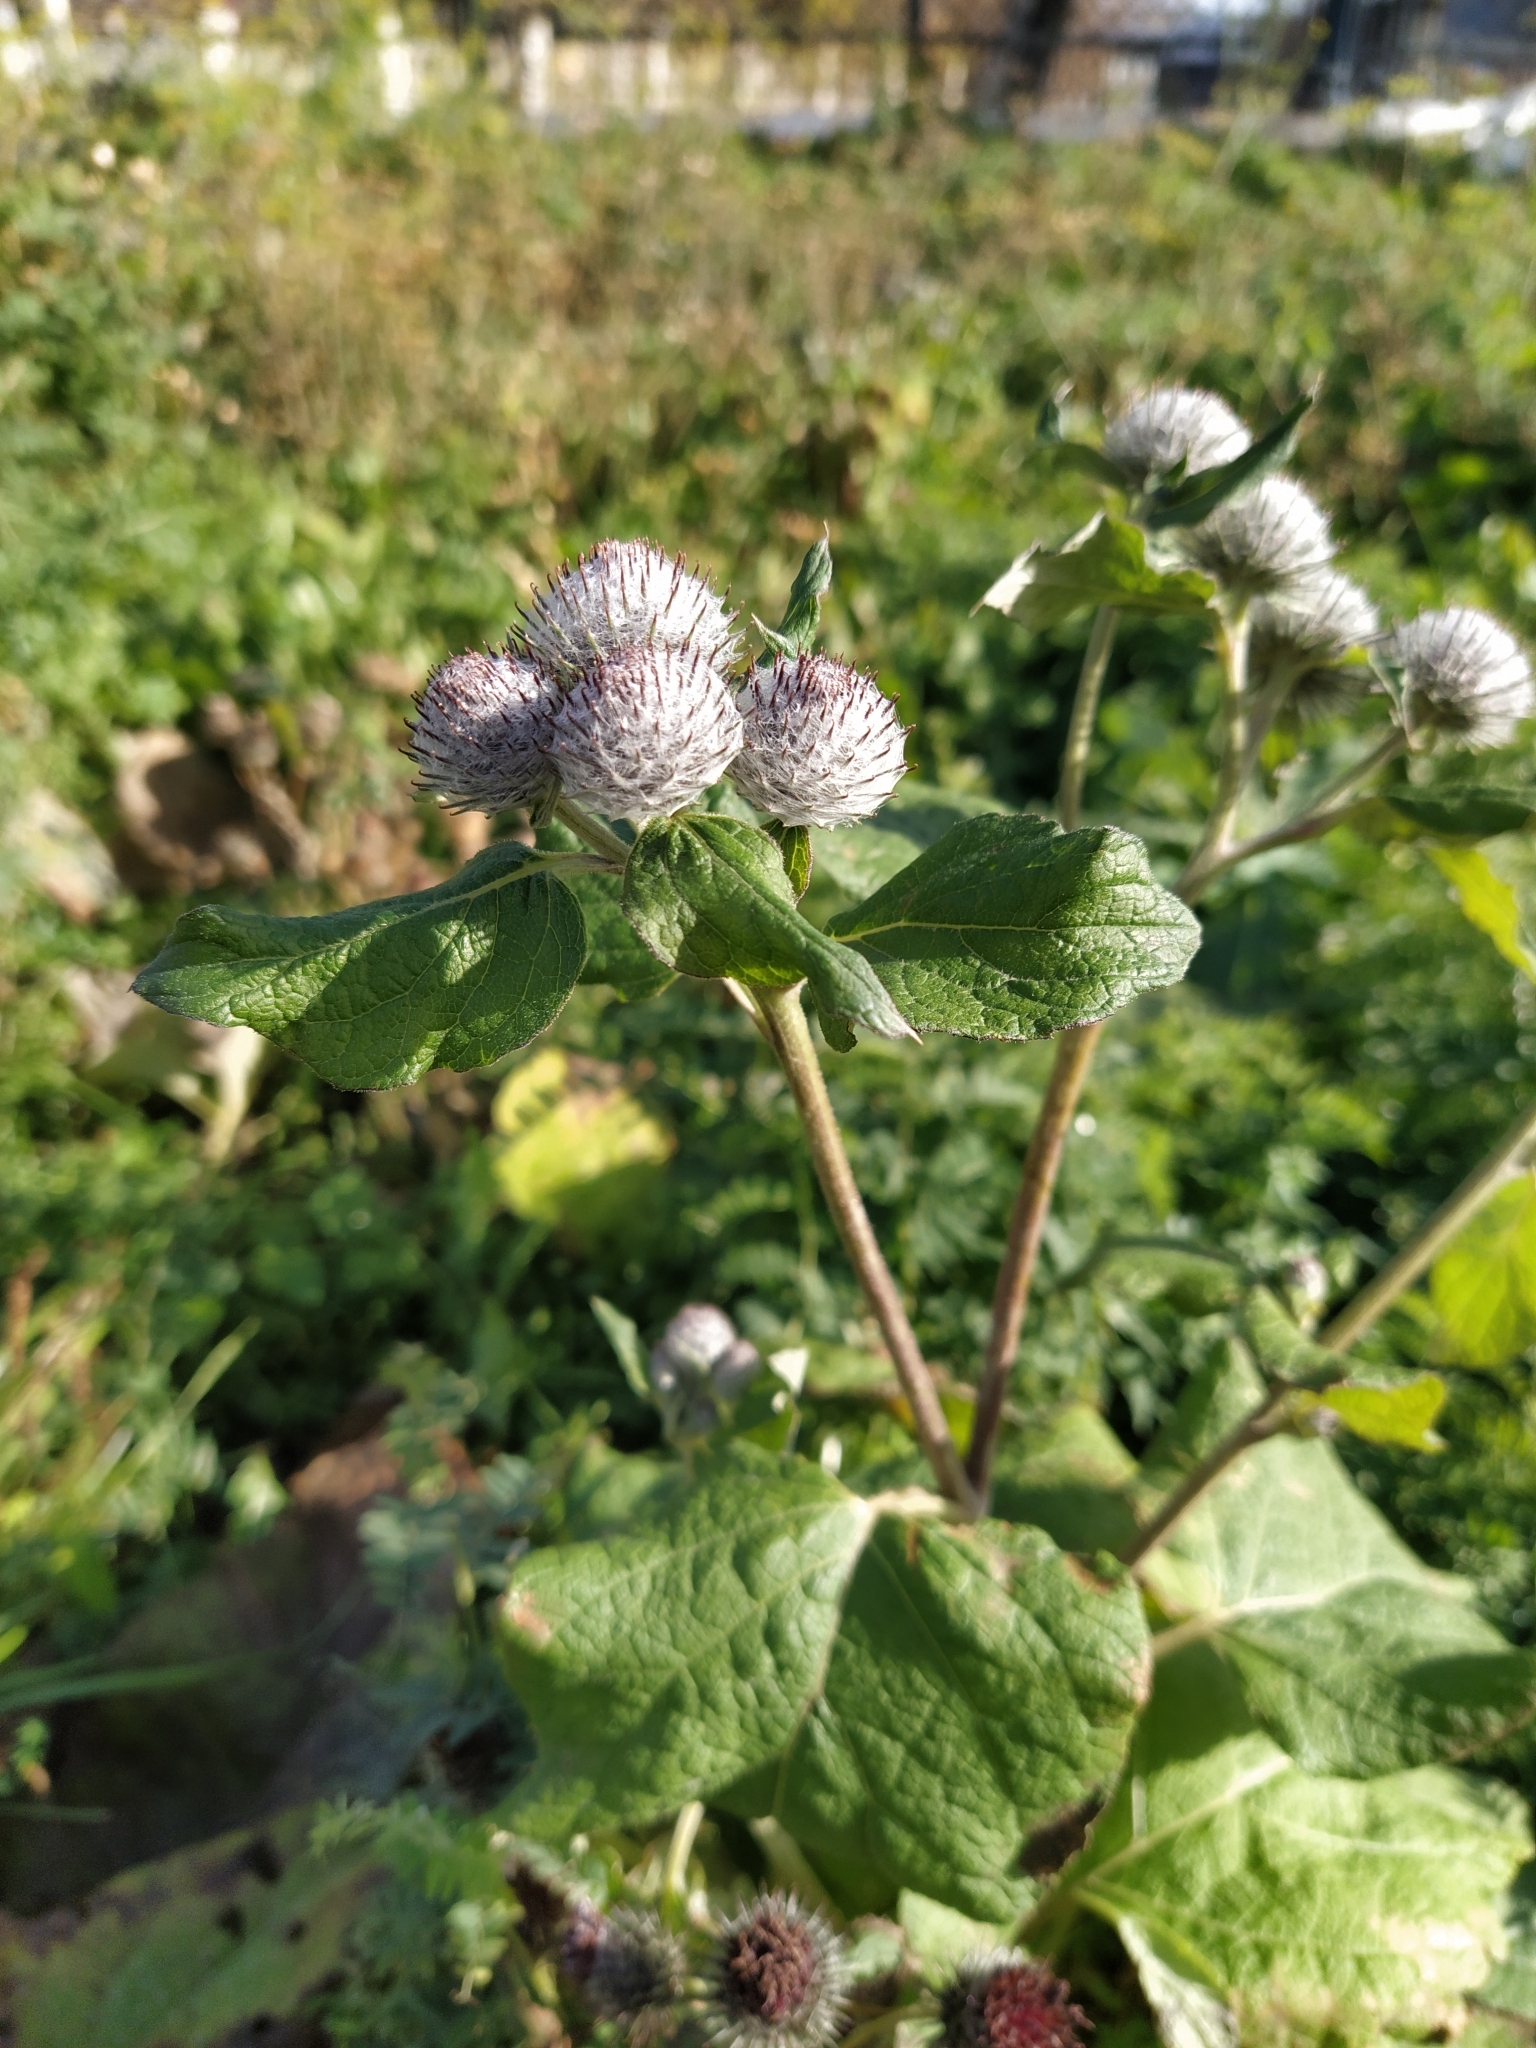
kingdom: Plantae
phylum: Tracheophyta
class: Magnoliopsida
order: Asterales
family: Asteraceae
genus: Arctium
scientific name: Arctium tomentosum
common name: Woolly burdock
